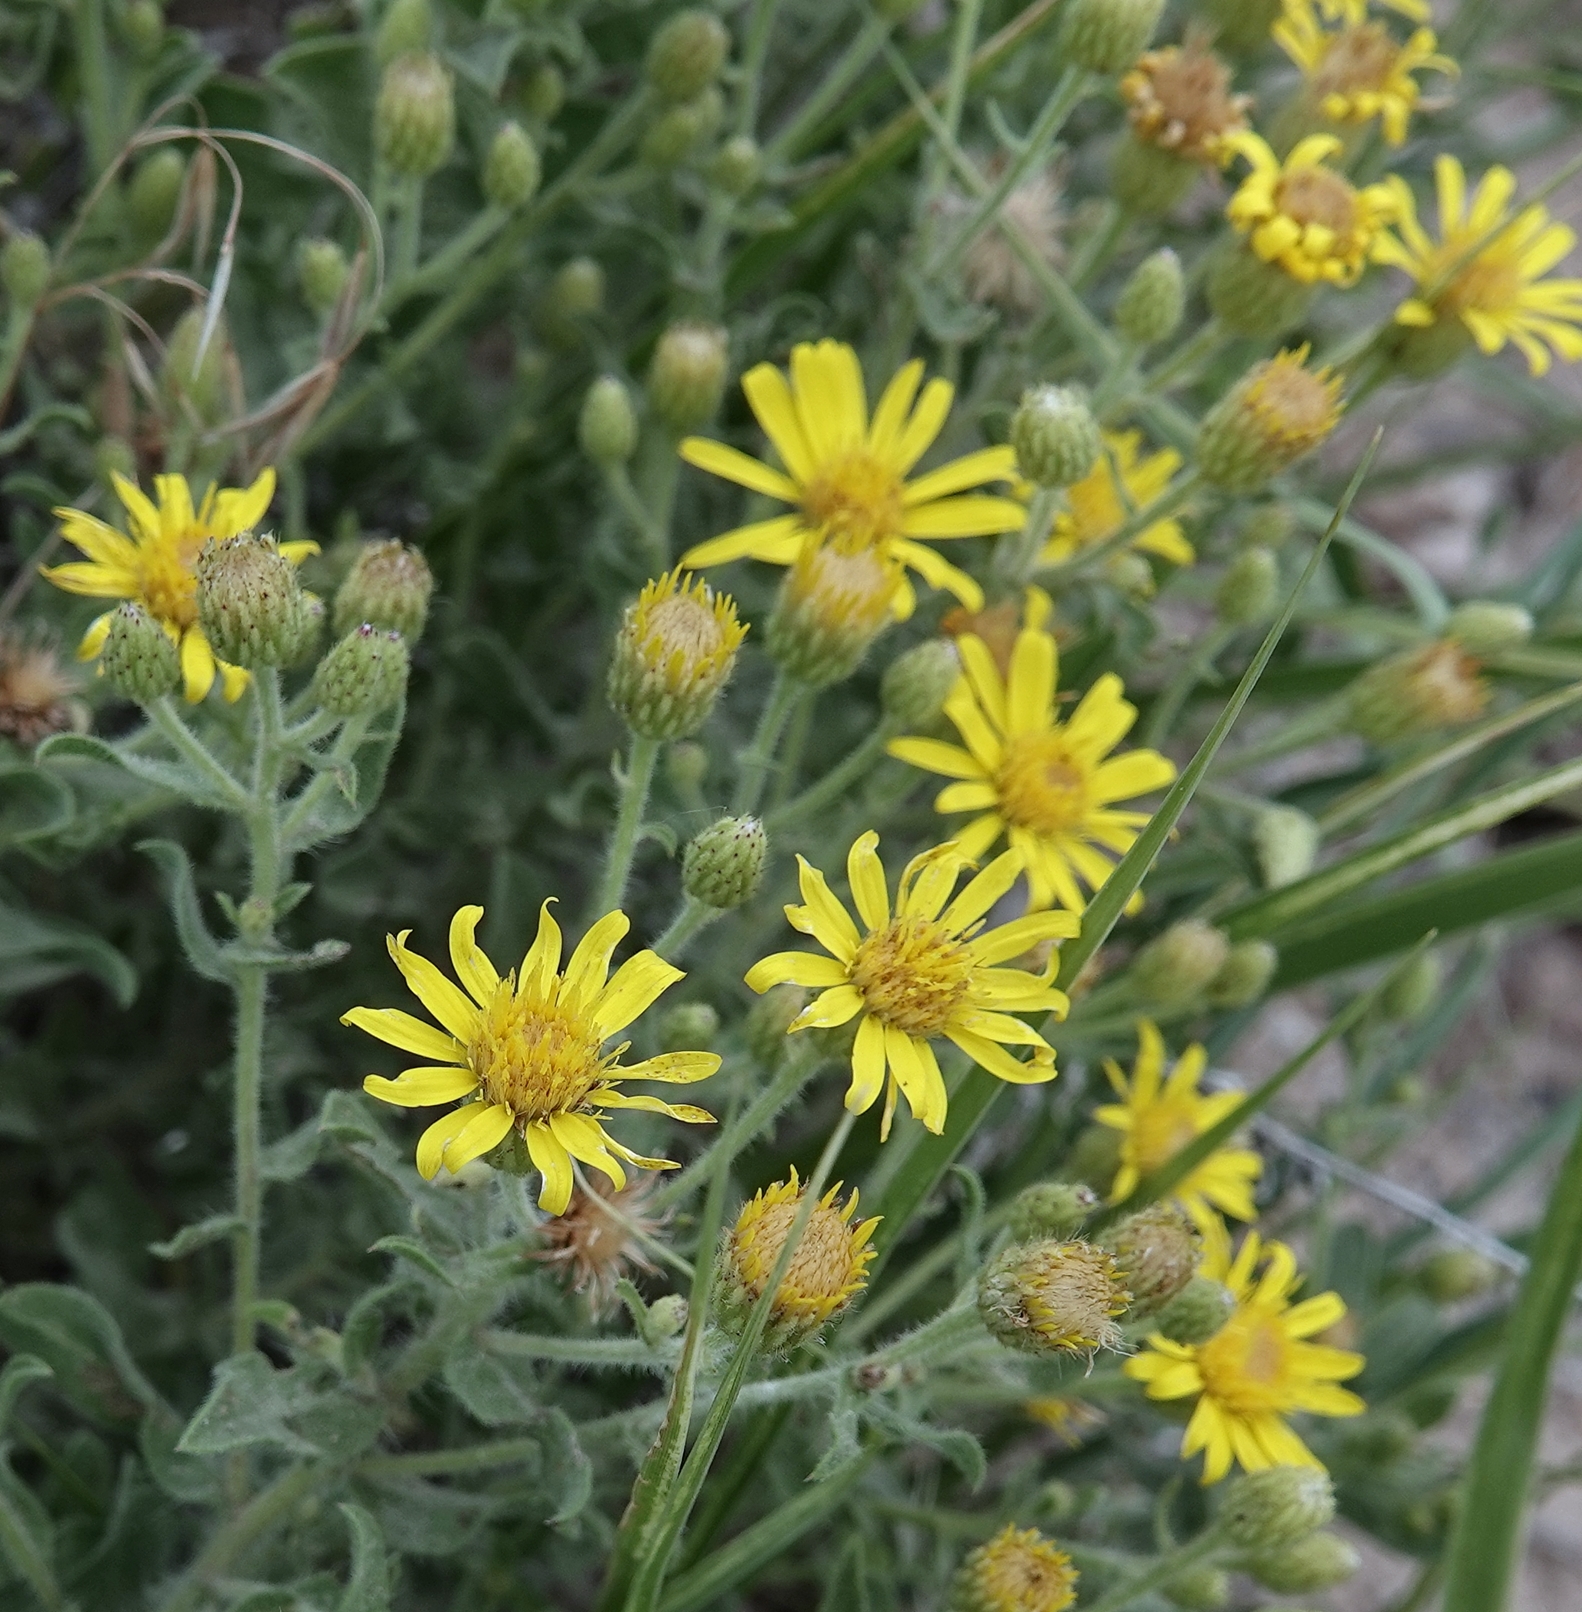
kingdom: Plantae
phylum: Tracheophyta
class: Magnoliopsida
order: Asterales
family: Asteraceae
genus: Heterotheca
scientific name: Heterotheca hirsutissima
